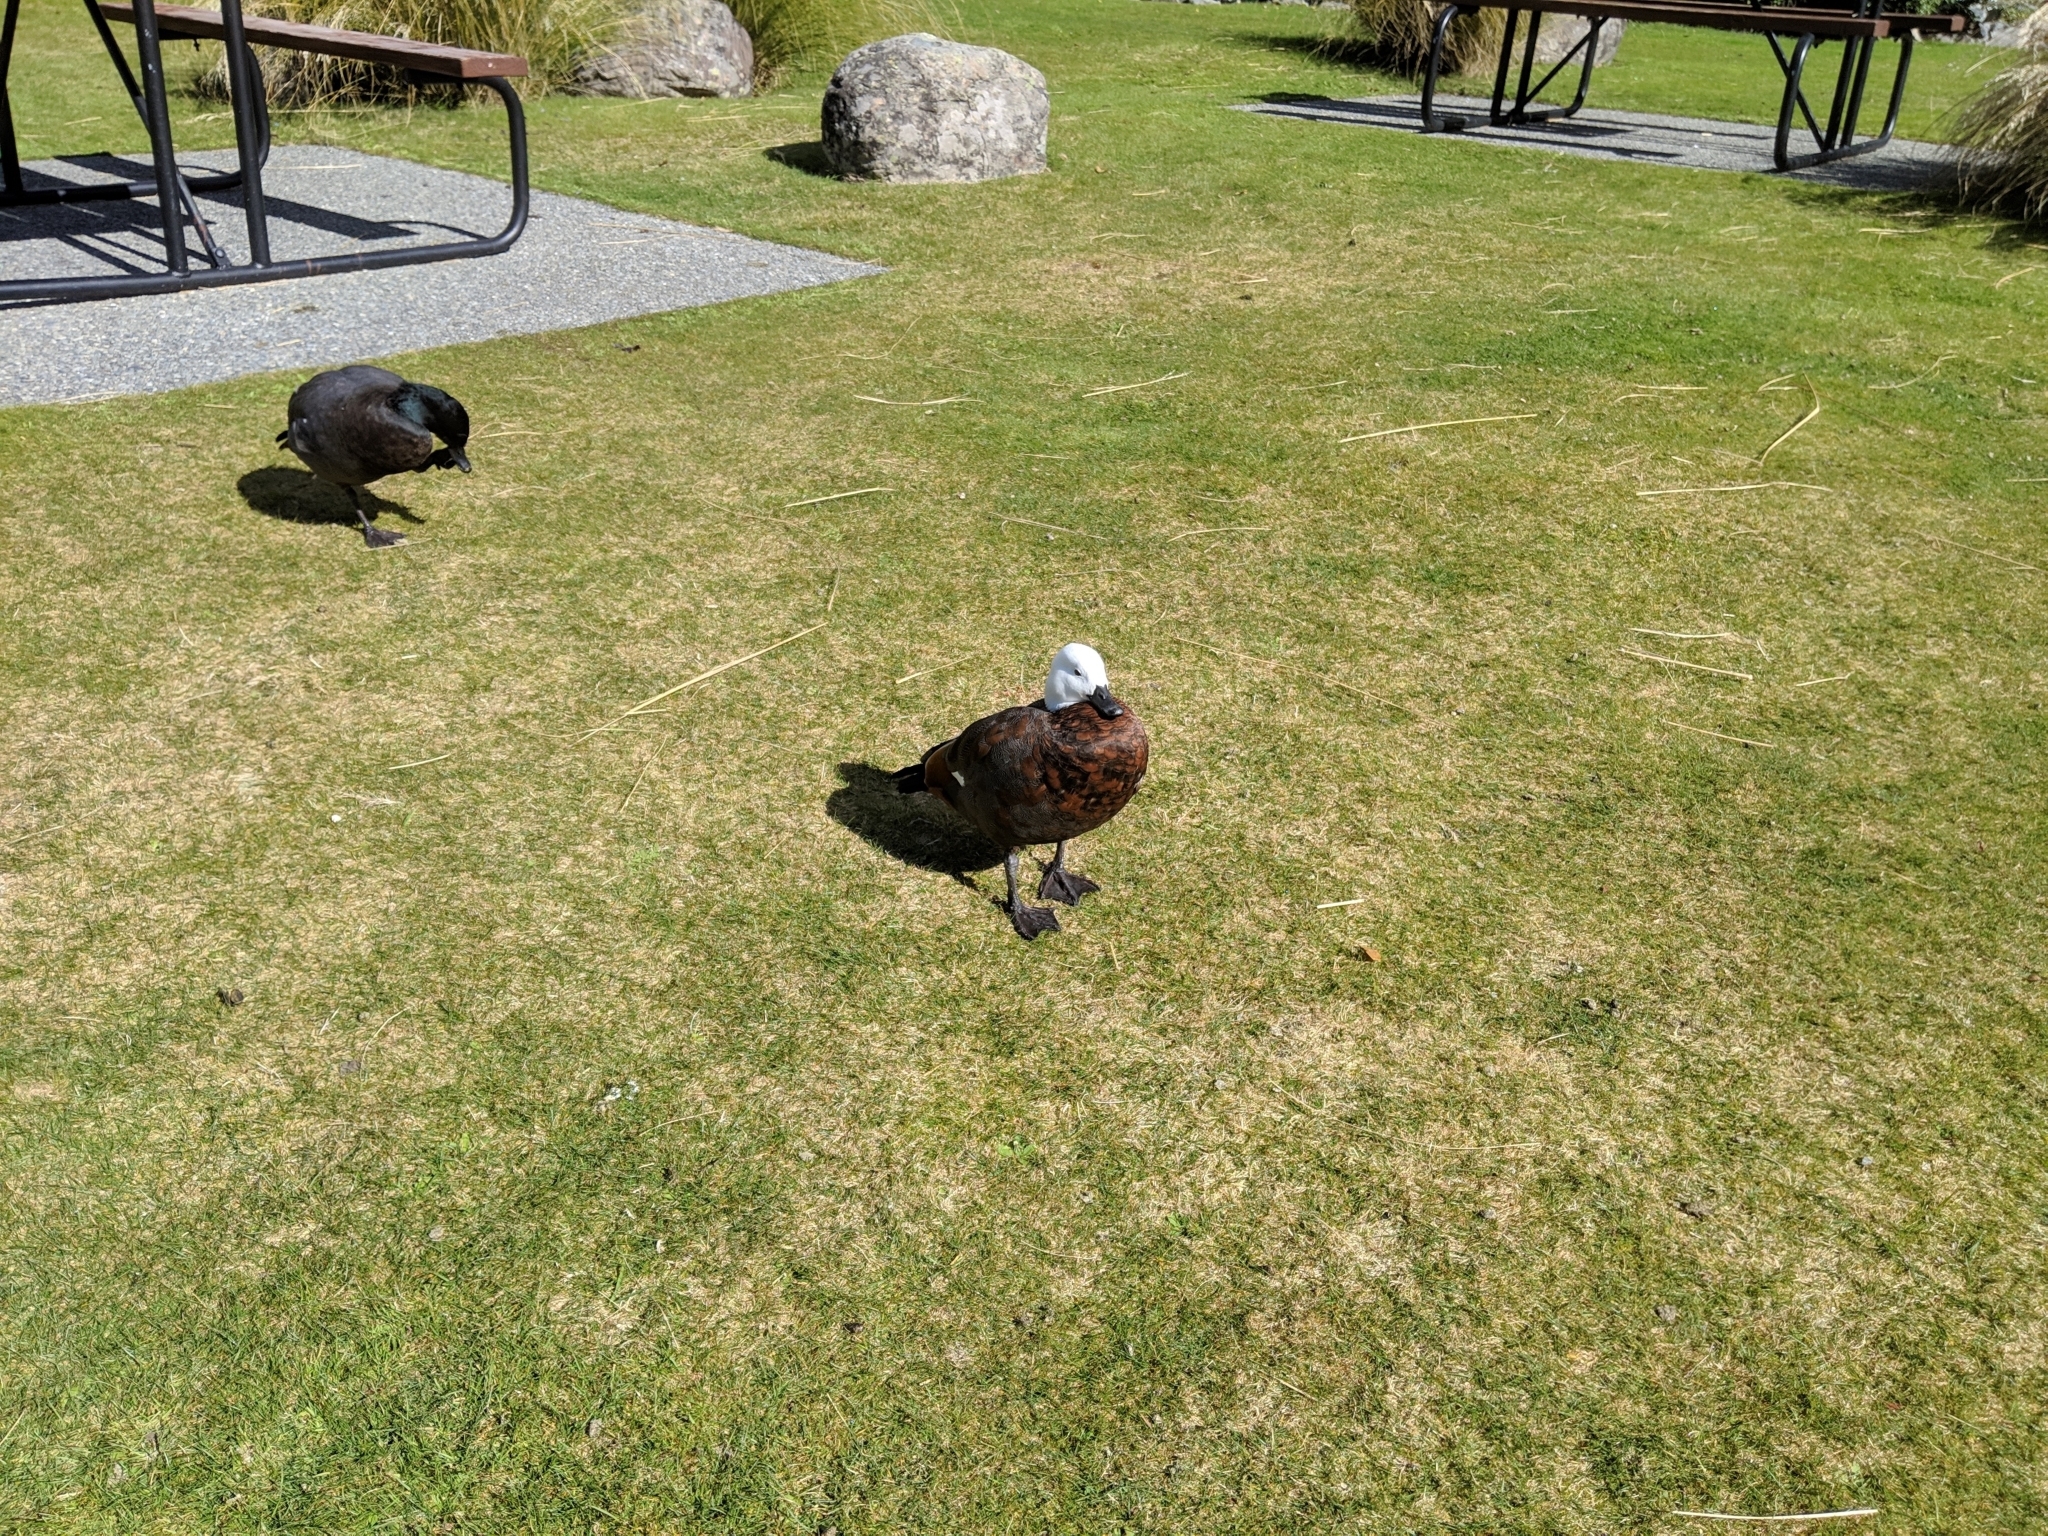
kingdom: Animalia
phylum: Chordata
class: Aves
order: Anseriformes
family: Anatidae
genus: Tadorna
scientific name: Tadorna variegata
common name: Paradise shelduck
